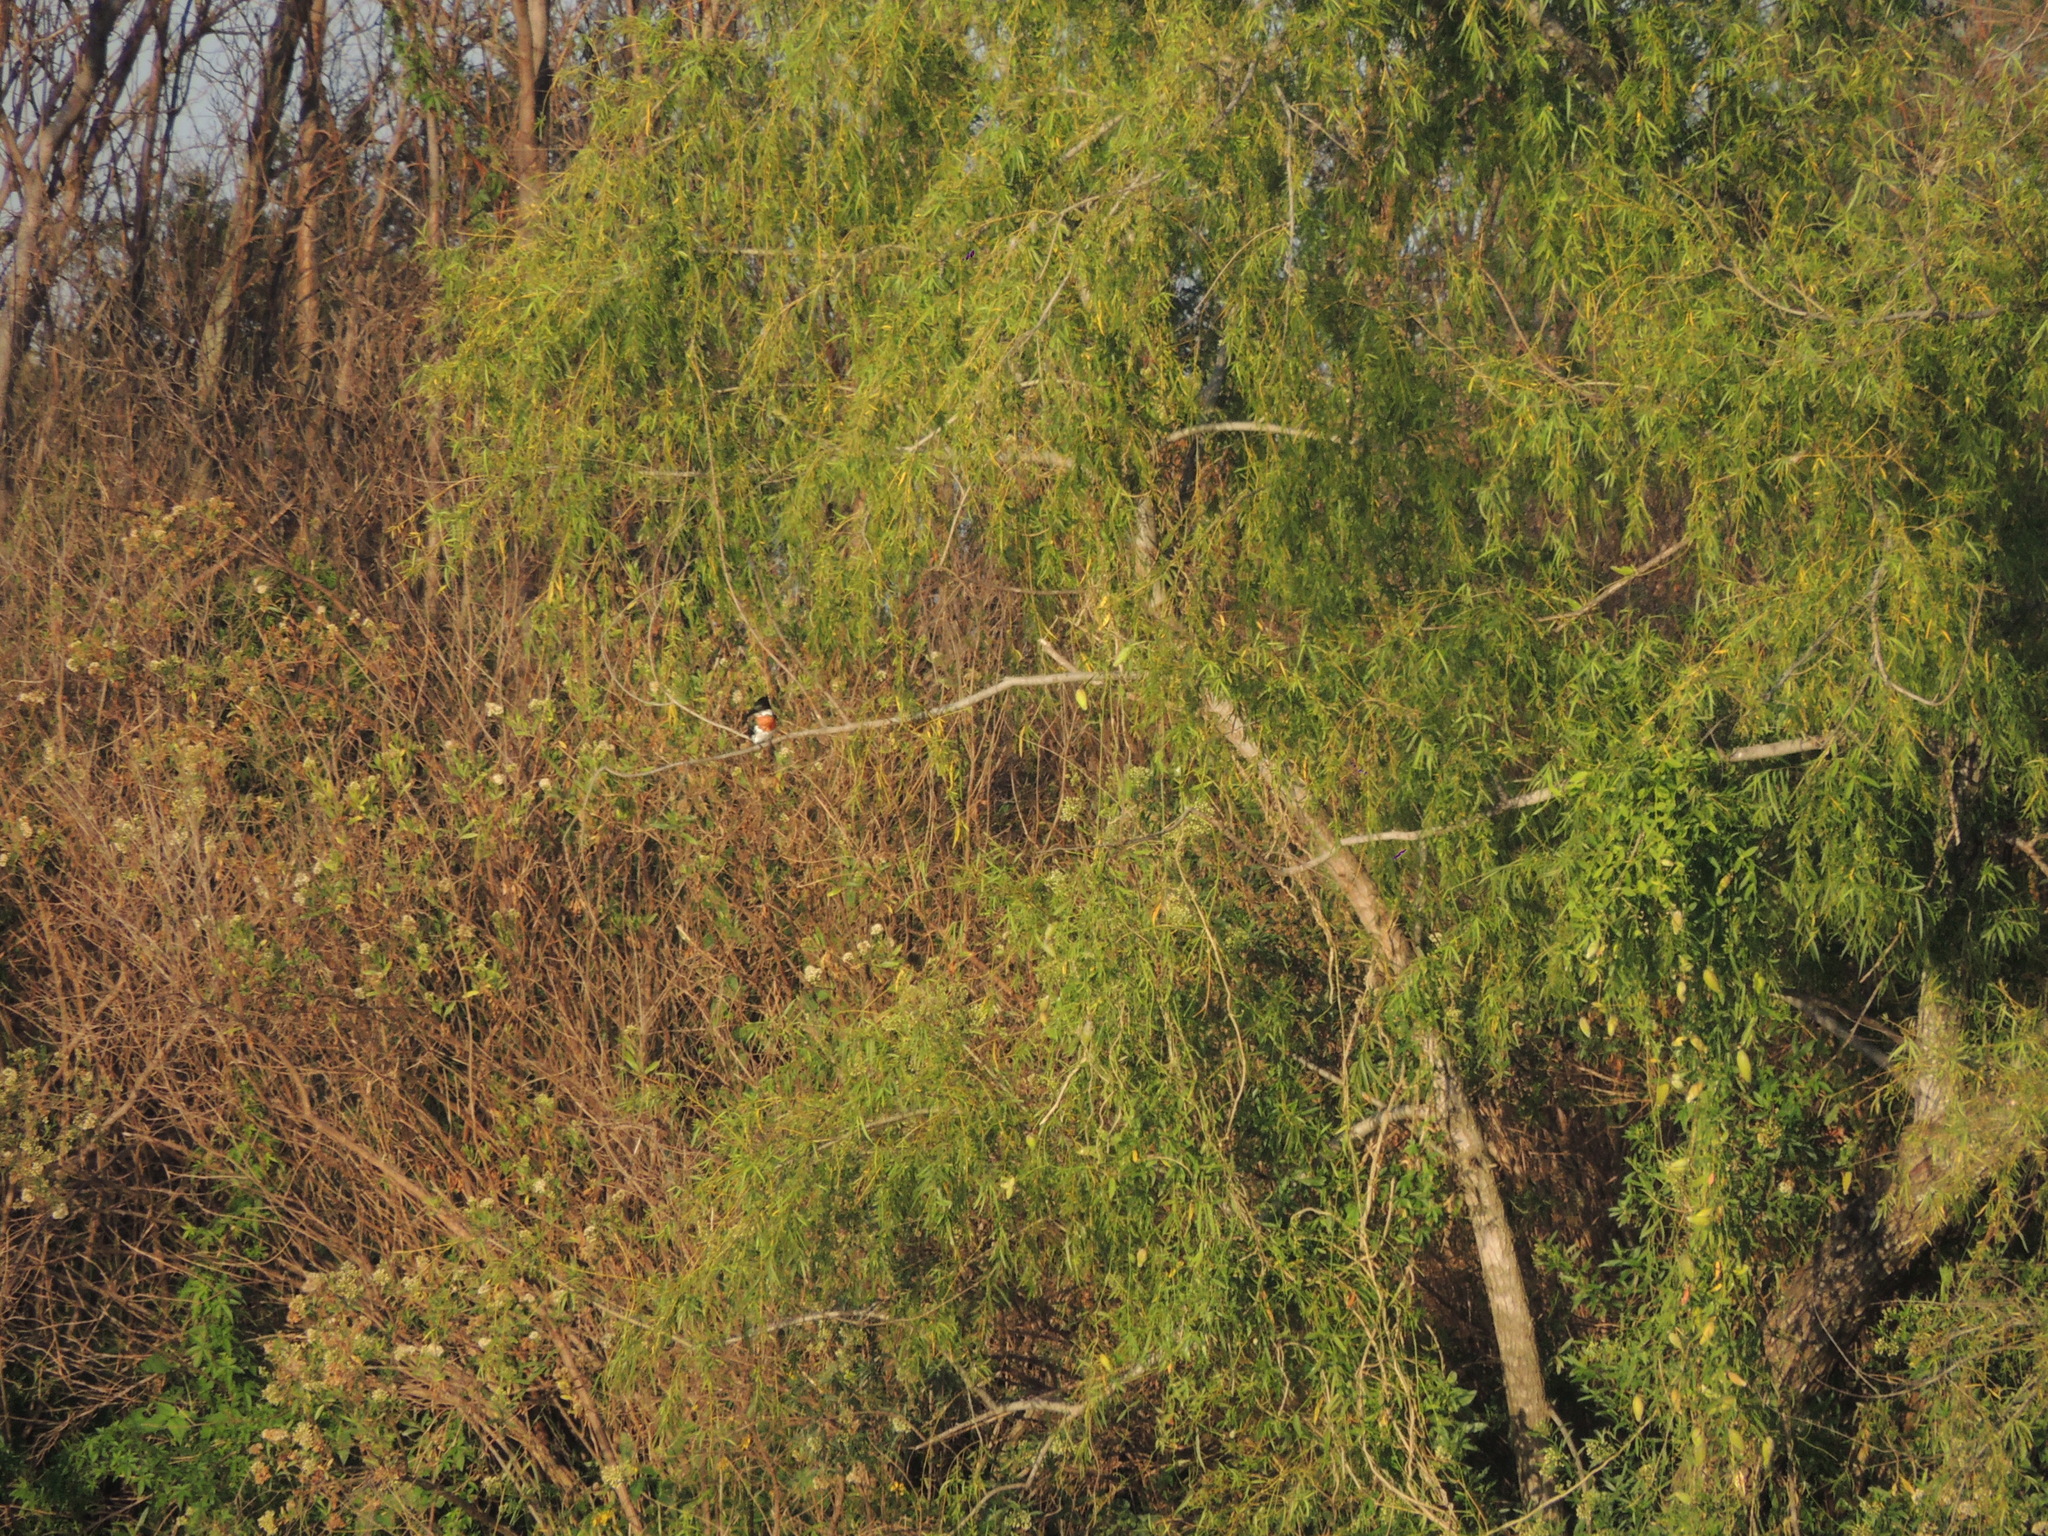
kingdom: Animalia
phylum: Chordata
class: Aves
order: Coraciiformes
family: Alcedinidae
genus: Chloroceryle
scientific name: Chloroceryle americana
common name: Green kingfisher
